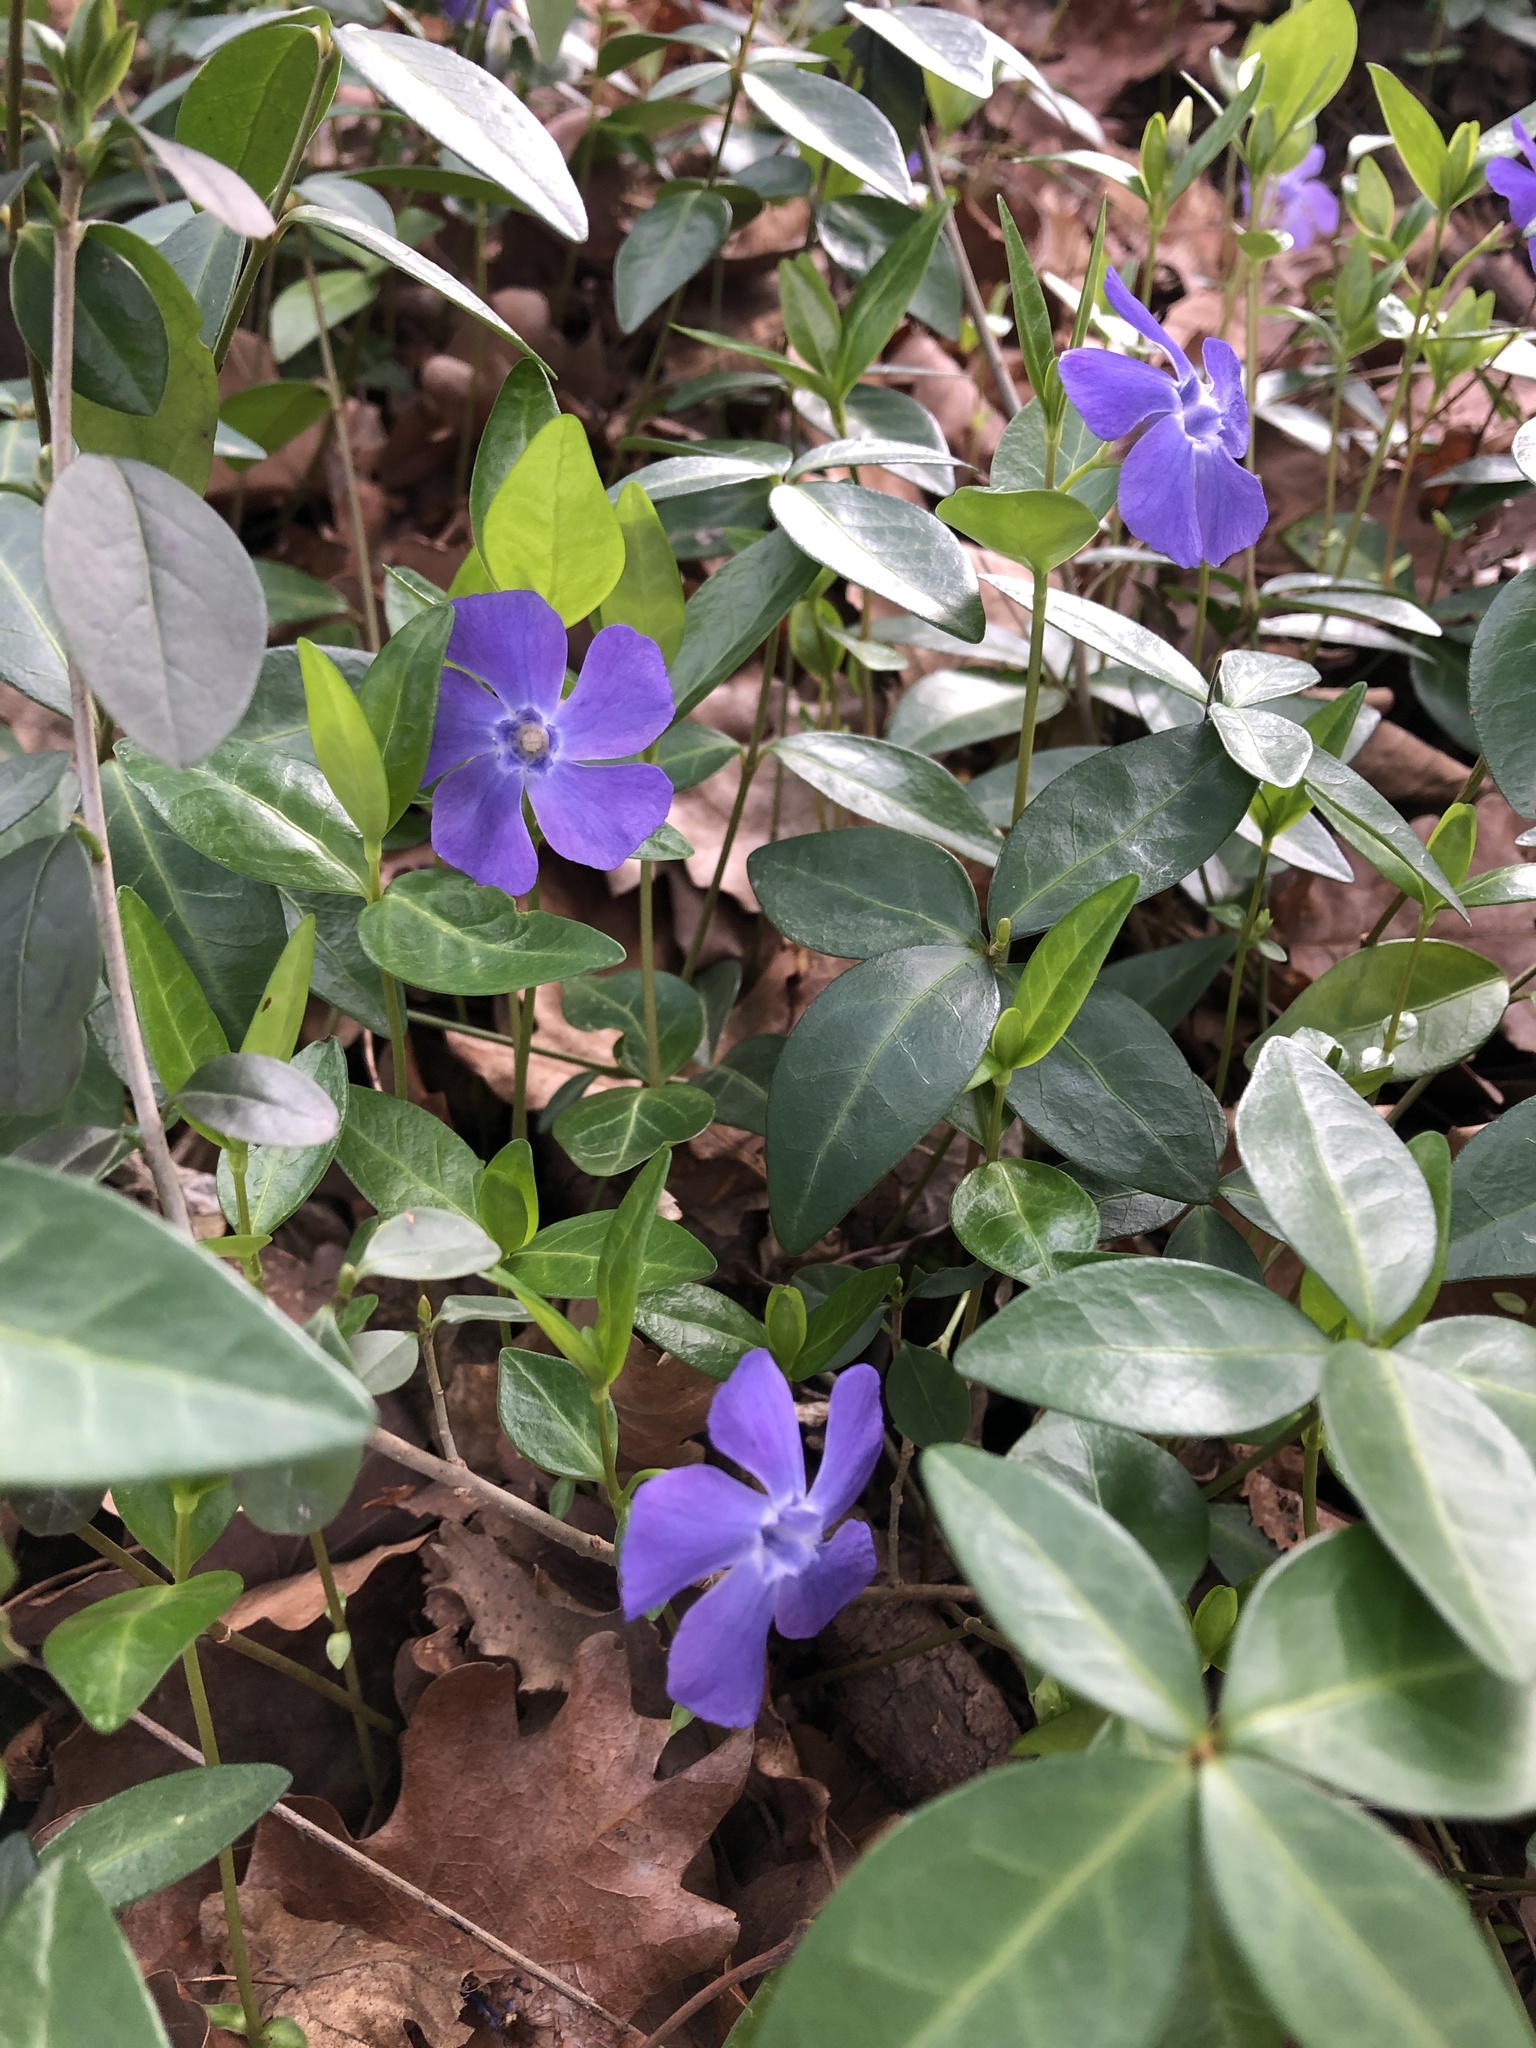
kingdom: Plantae
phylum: Tracheophyta
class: Magnoliopsida
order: Gentianales
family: Apocynaceae
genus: Vinca
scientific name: Vinca minor
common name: Lesser periwinkle
